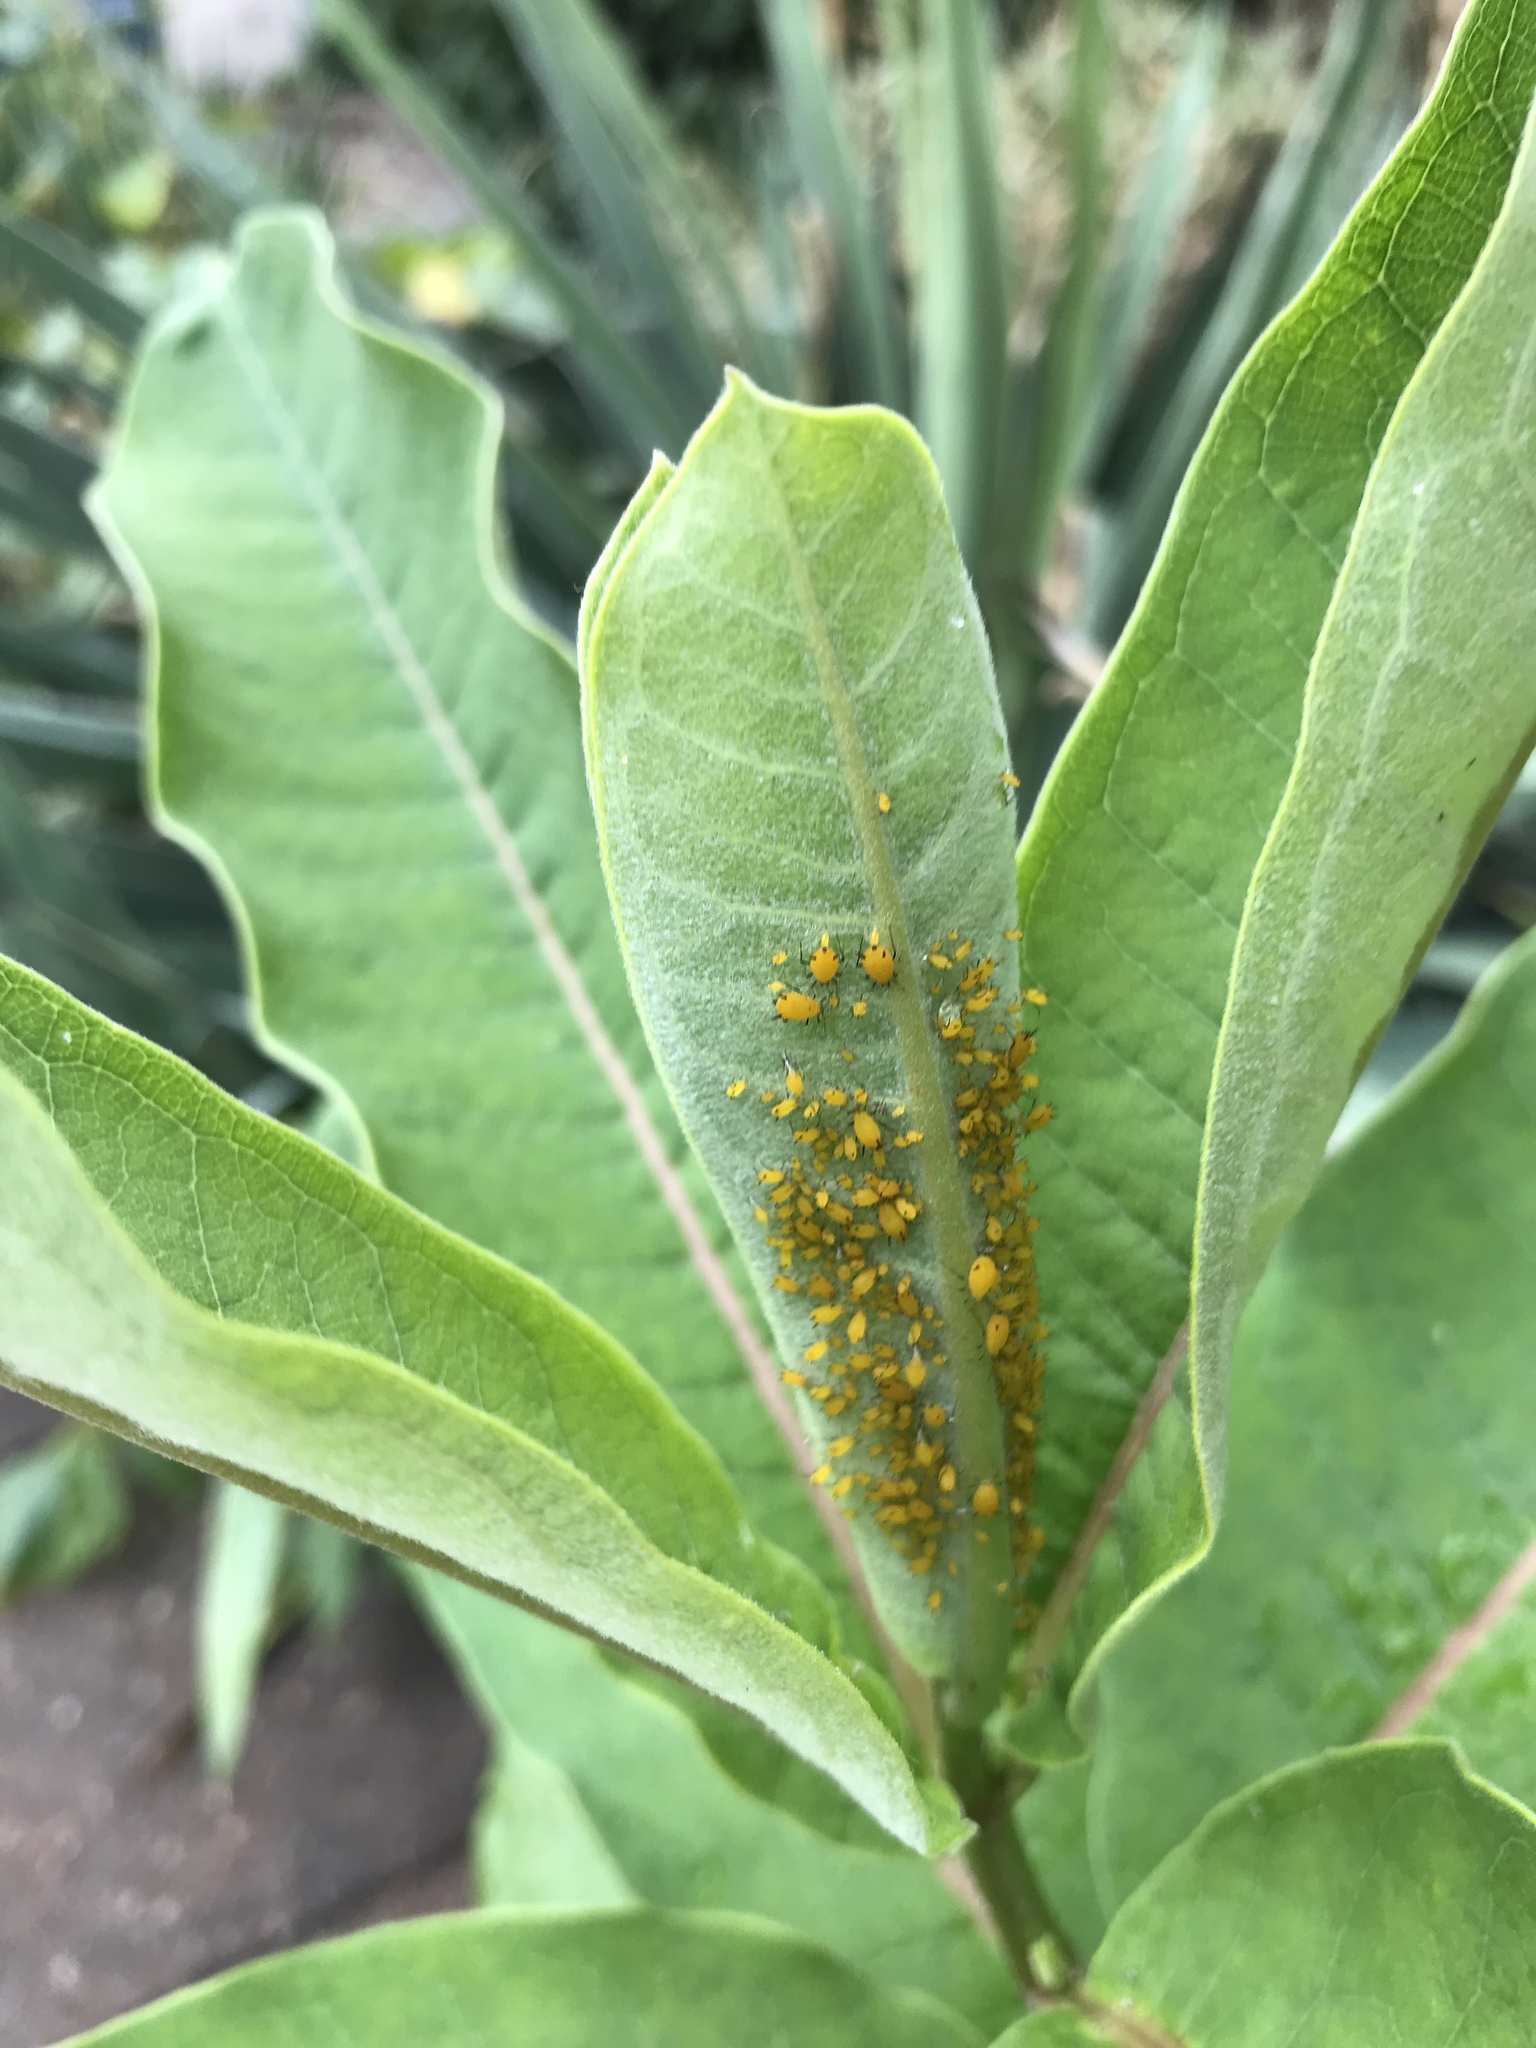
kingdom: Animalia
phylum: Arthropoda
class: Insecta
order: Hemiptera
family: Aphididae
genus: Aphis
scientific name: Aphis nerii
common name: Oleander aphid
